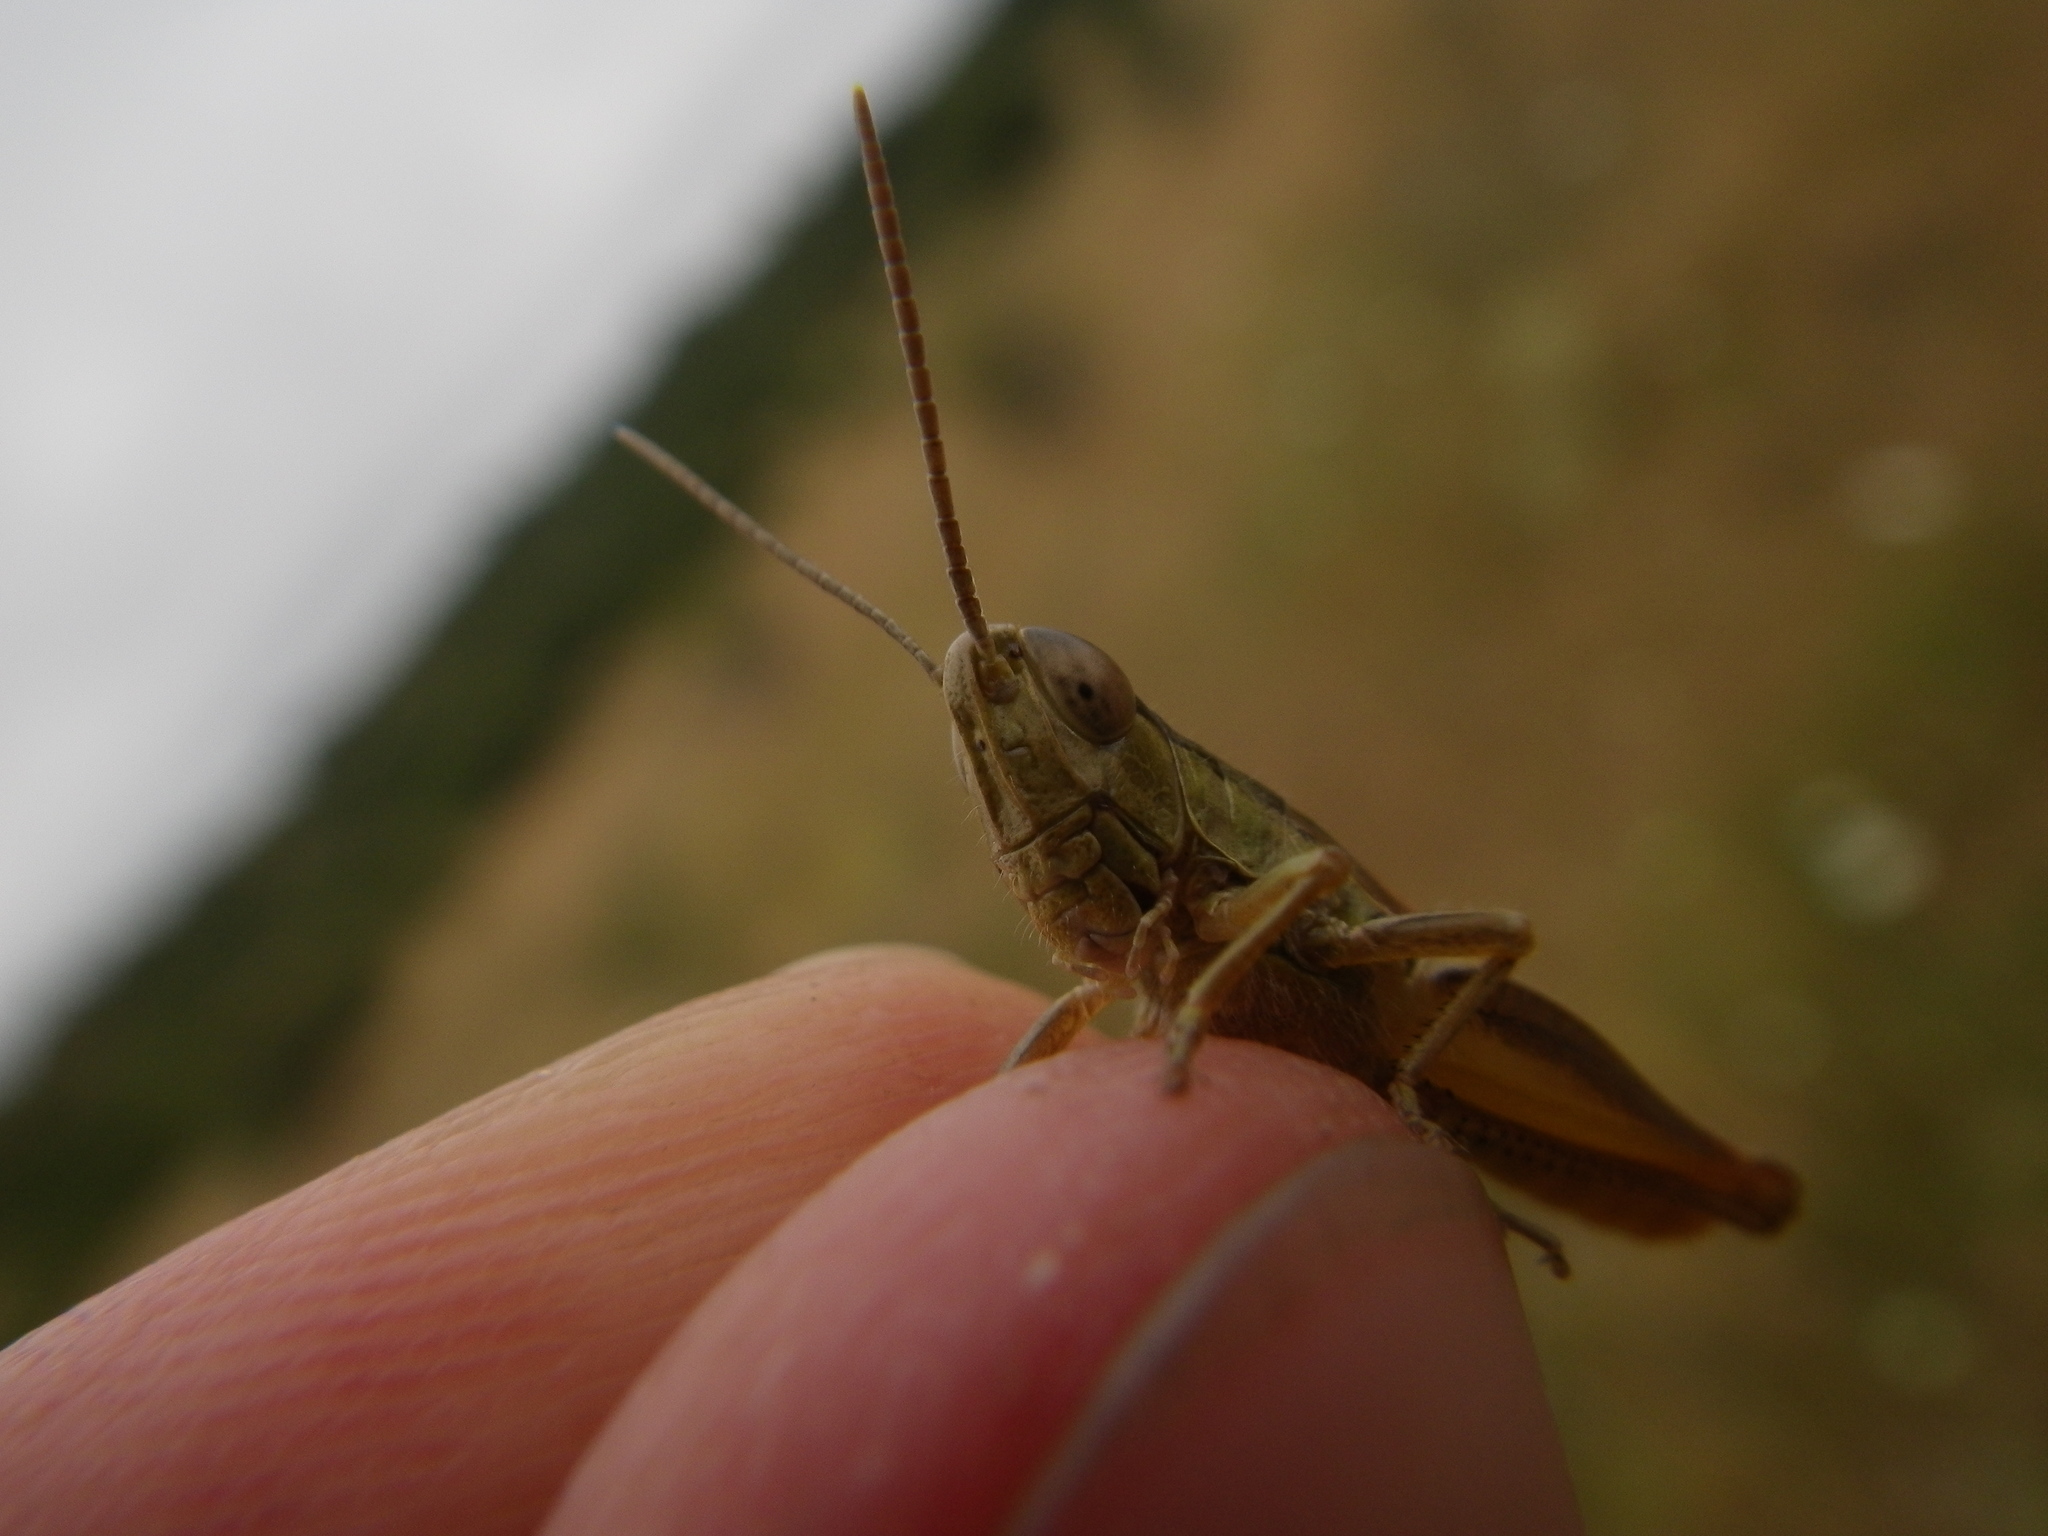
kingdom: Animalia
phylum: Arthropoda
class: Insecta
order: Orthoptera
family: Acrididae
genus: Euchorthippus
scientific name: Euchorthippus declivus
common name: Common straw grasshopper
